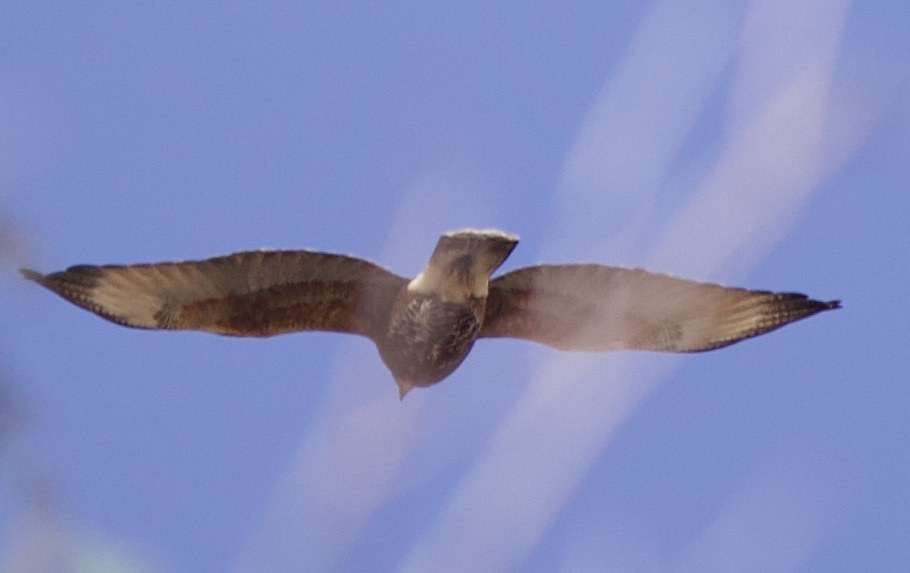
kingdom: Animalia
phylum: Chordata
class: Aves
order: Accipitriformes
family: Accipitridae
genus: Parabuteo
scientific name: Parabuteo unicinctus
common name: Harris's hawk
